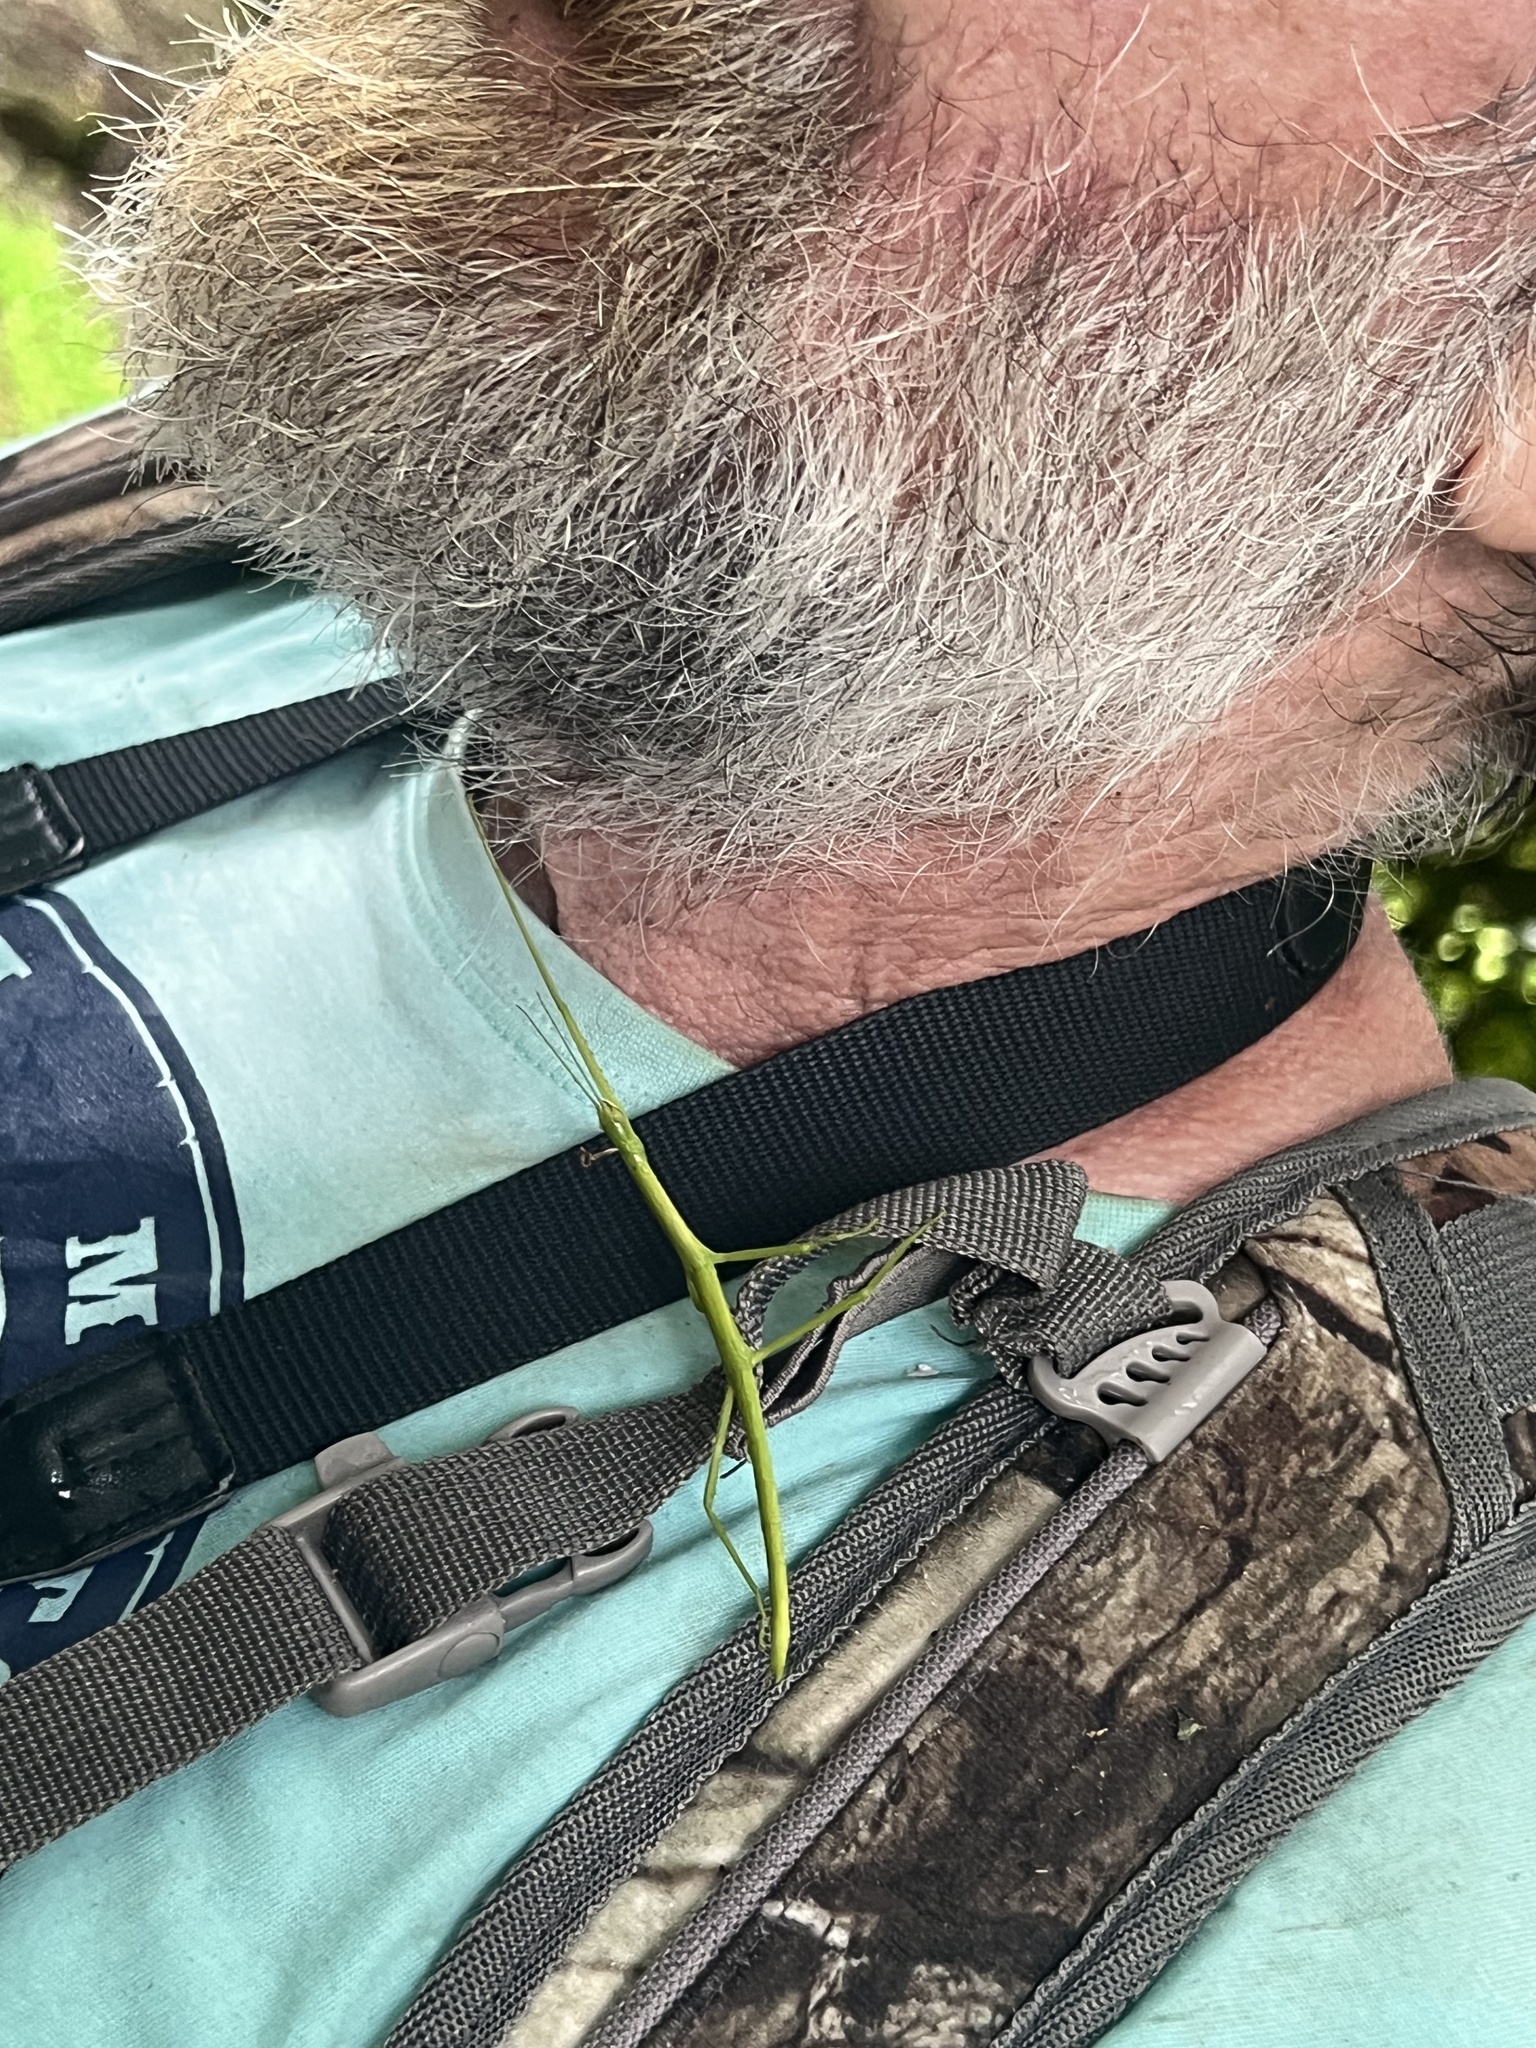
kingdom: Animalia
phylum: Arthropoda
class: Insecta
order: Phasmida
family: Phasmatidae
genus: Clitarchus
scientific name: Clitarchus hookeri
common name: Smooth stick insect
